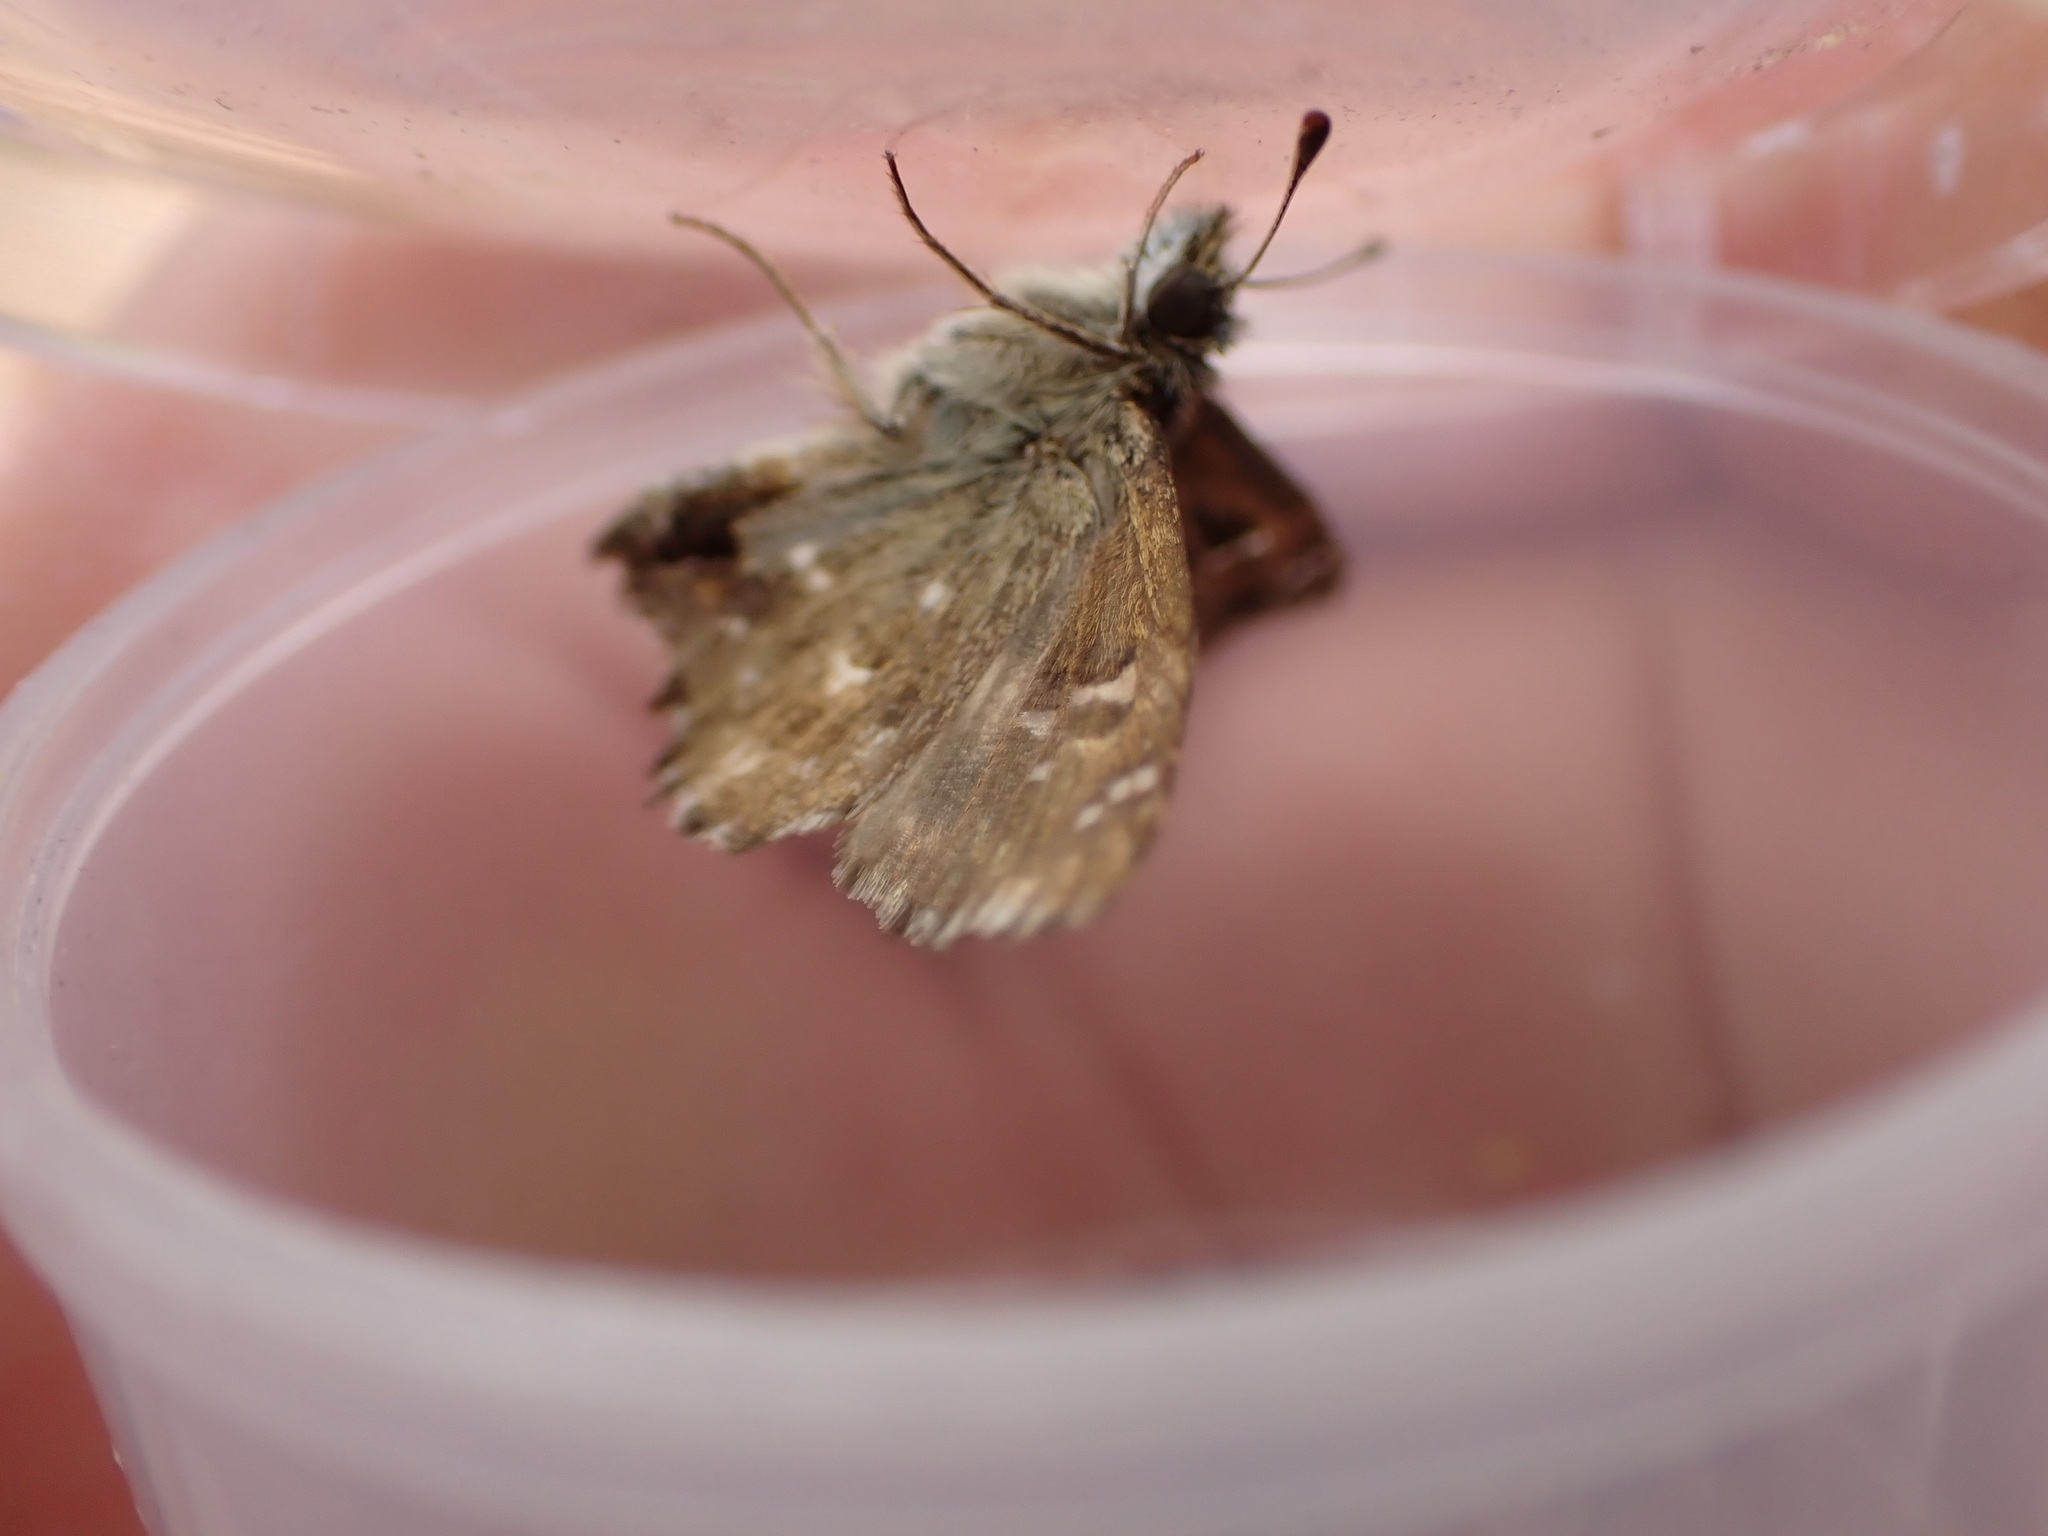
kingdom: Animalia
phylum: Arthropoda
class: Insecta
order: Lepidoptera
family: Hesperiidae
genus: Carcharodus
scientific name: Carcharodus alceae
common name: Mallow skipper
